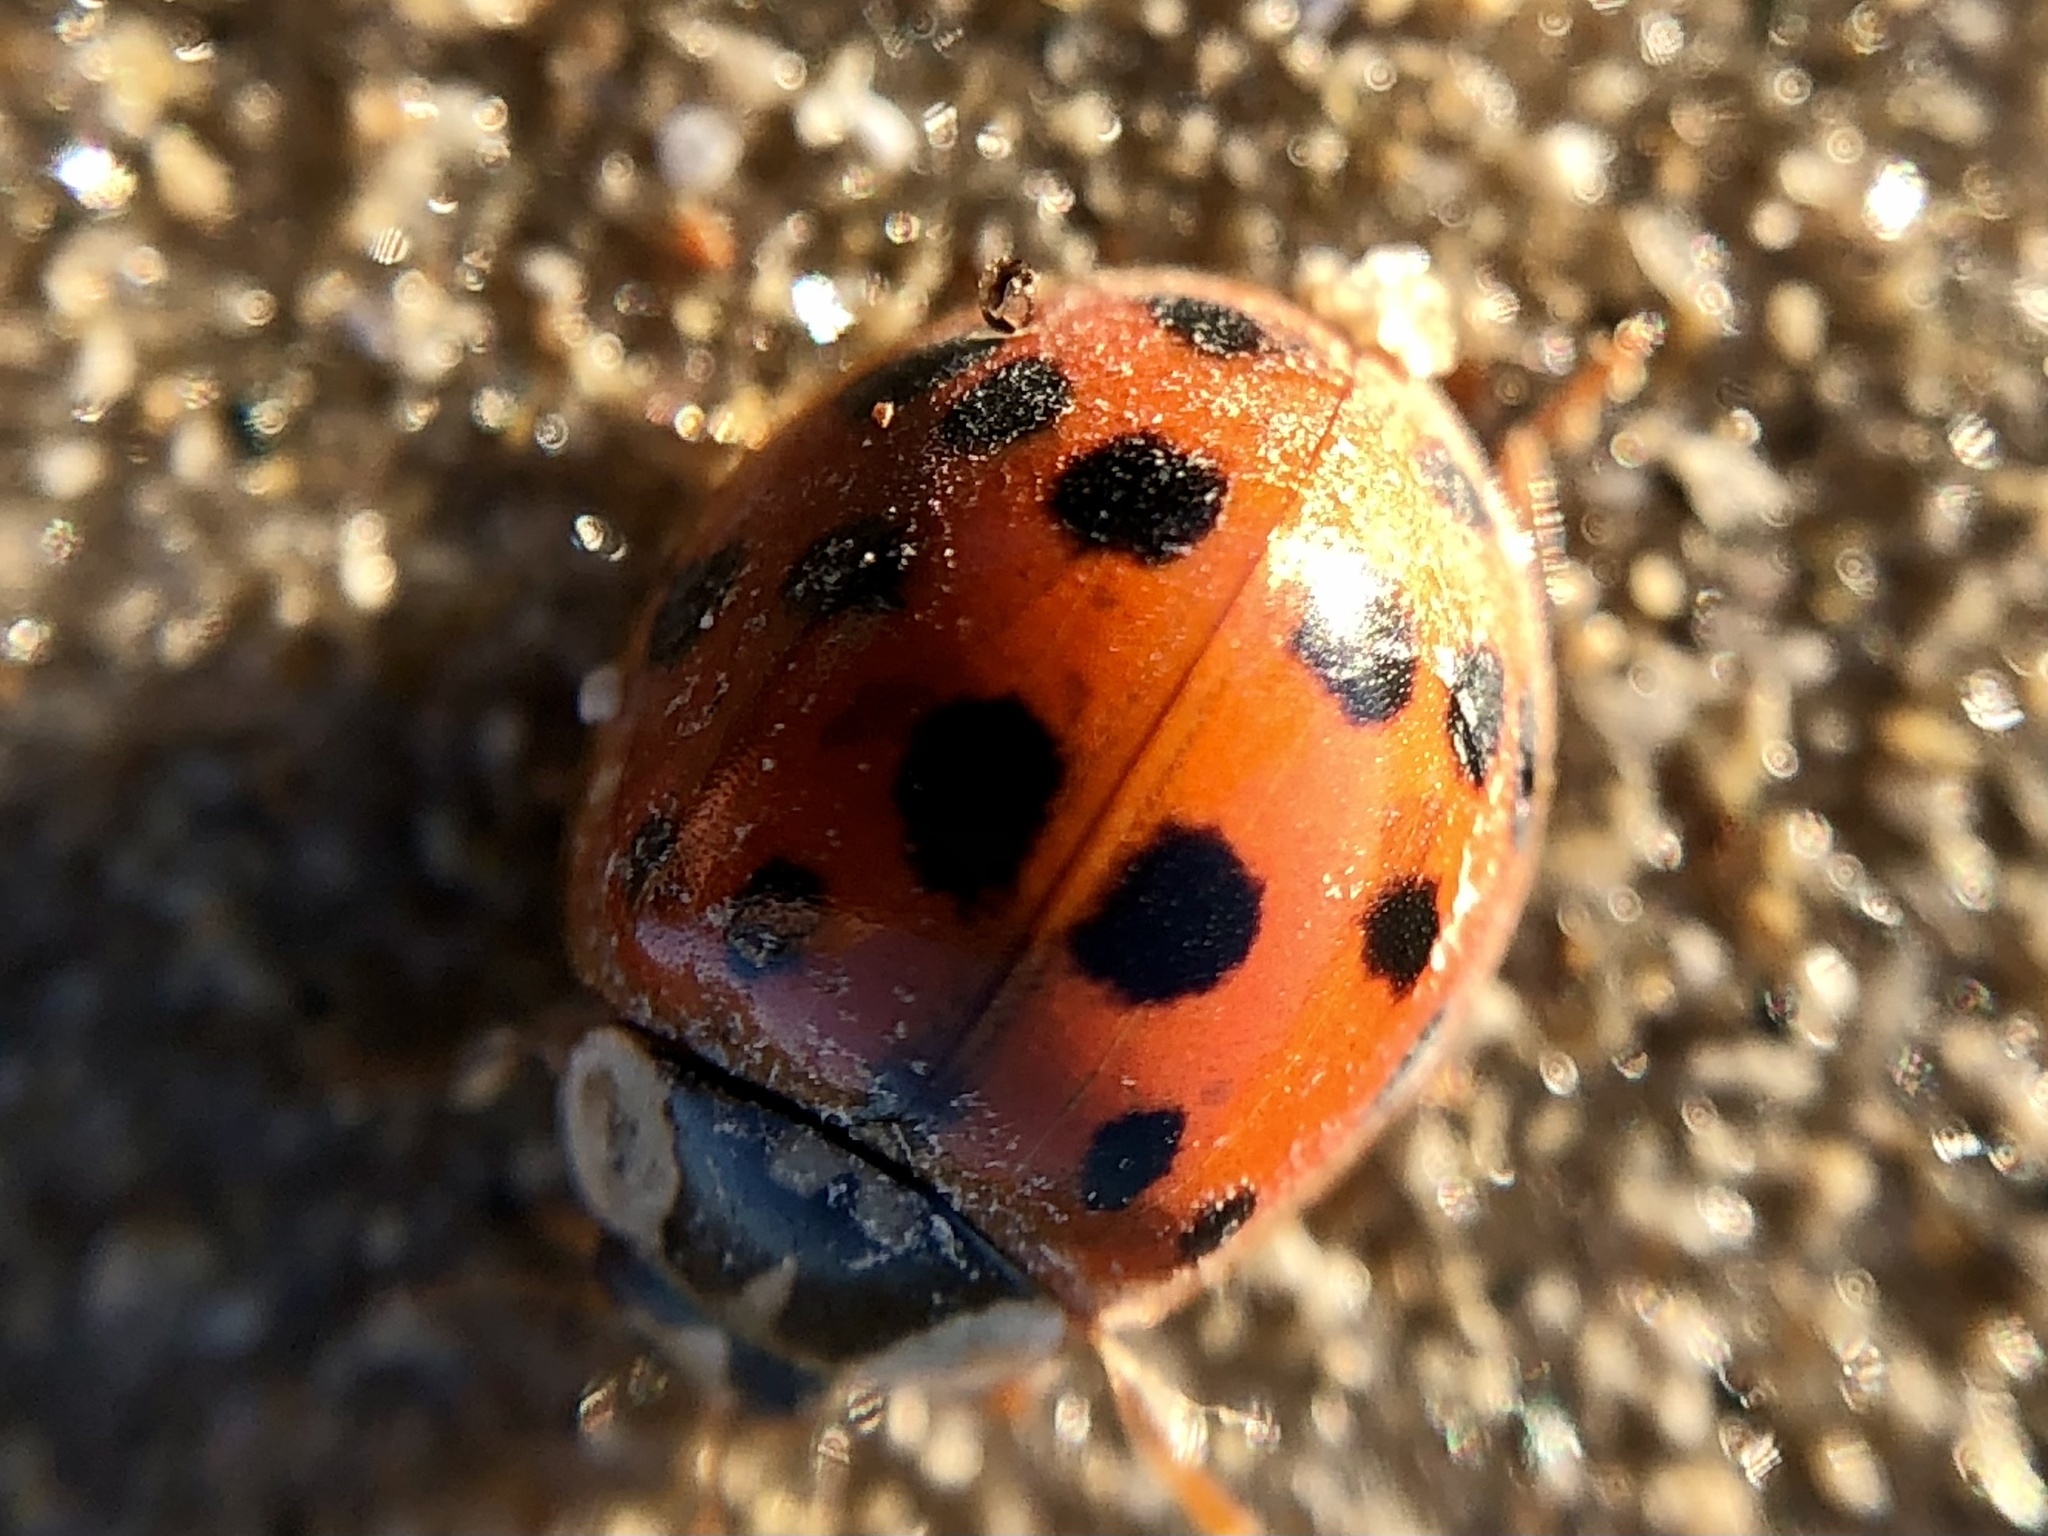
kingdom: Animalia
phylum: Arthropoda
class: Insecta
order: Coleoptera
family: Coccinellidae
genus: Harmonia
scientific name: Harmonia axyridis
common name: Harlequin ladybird
